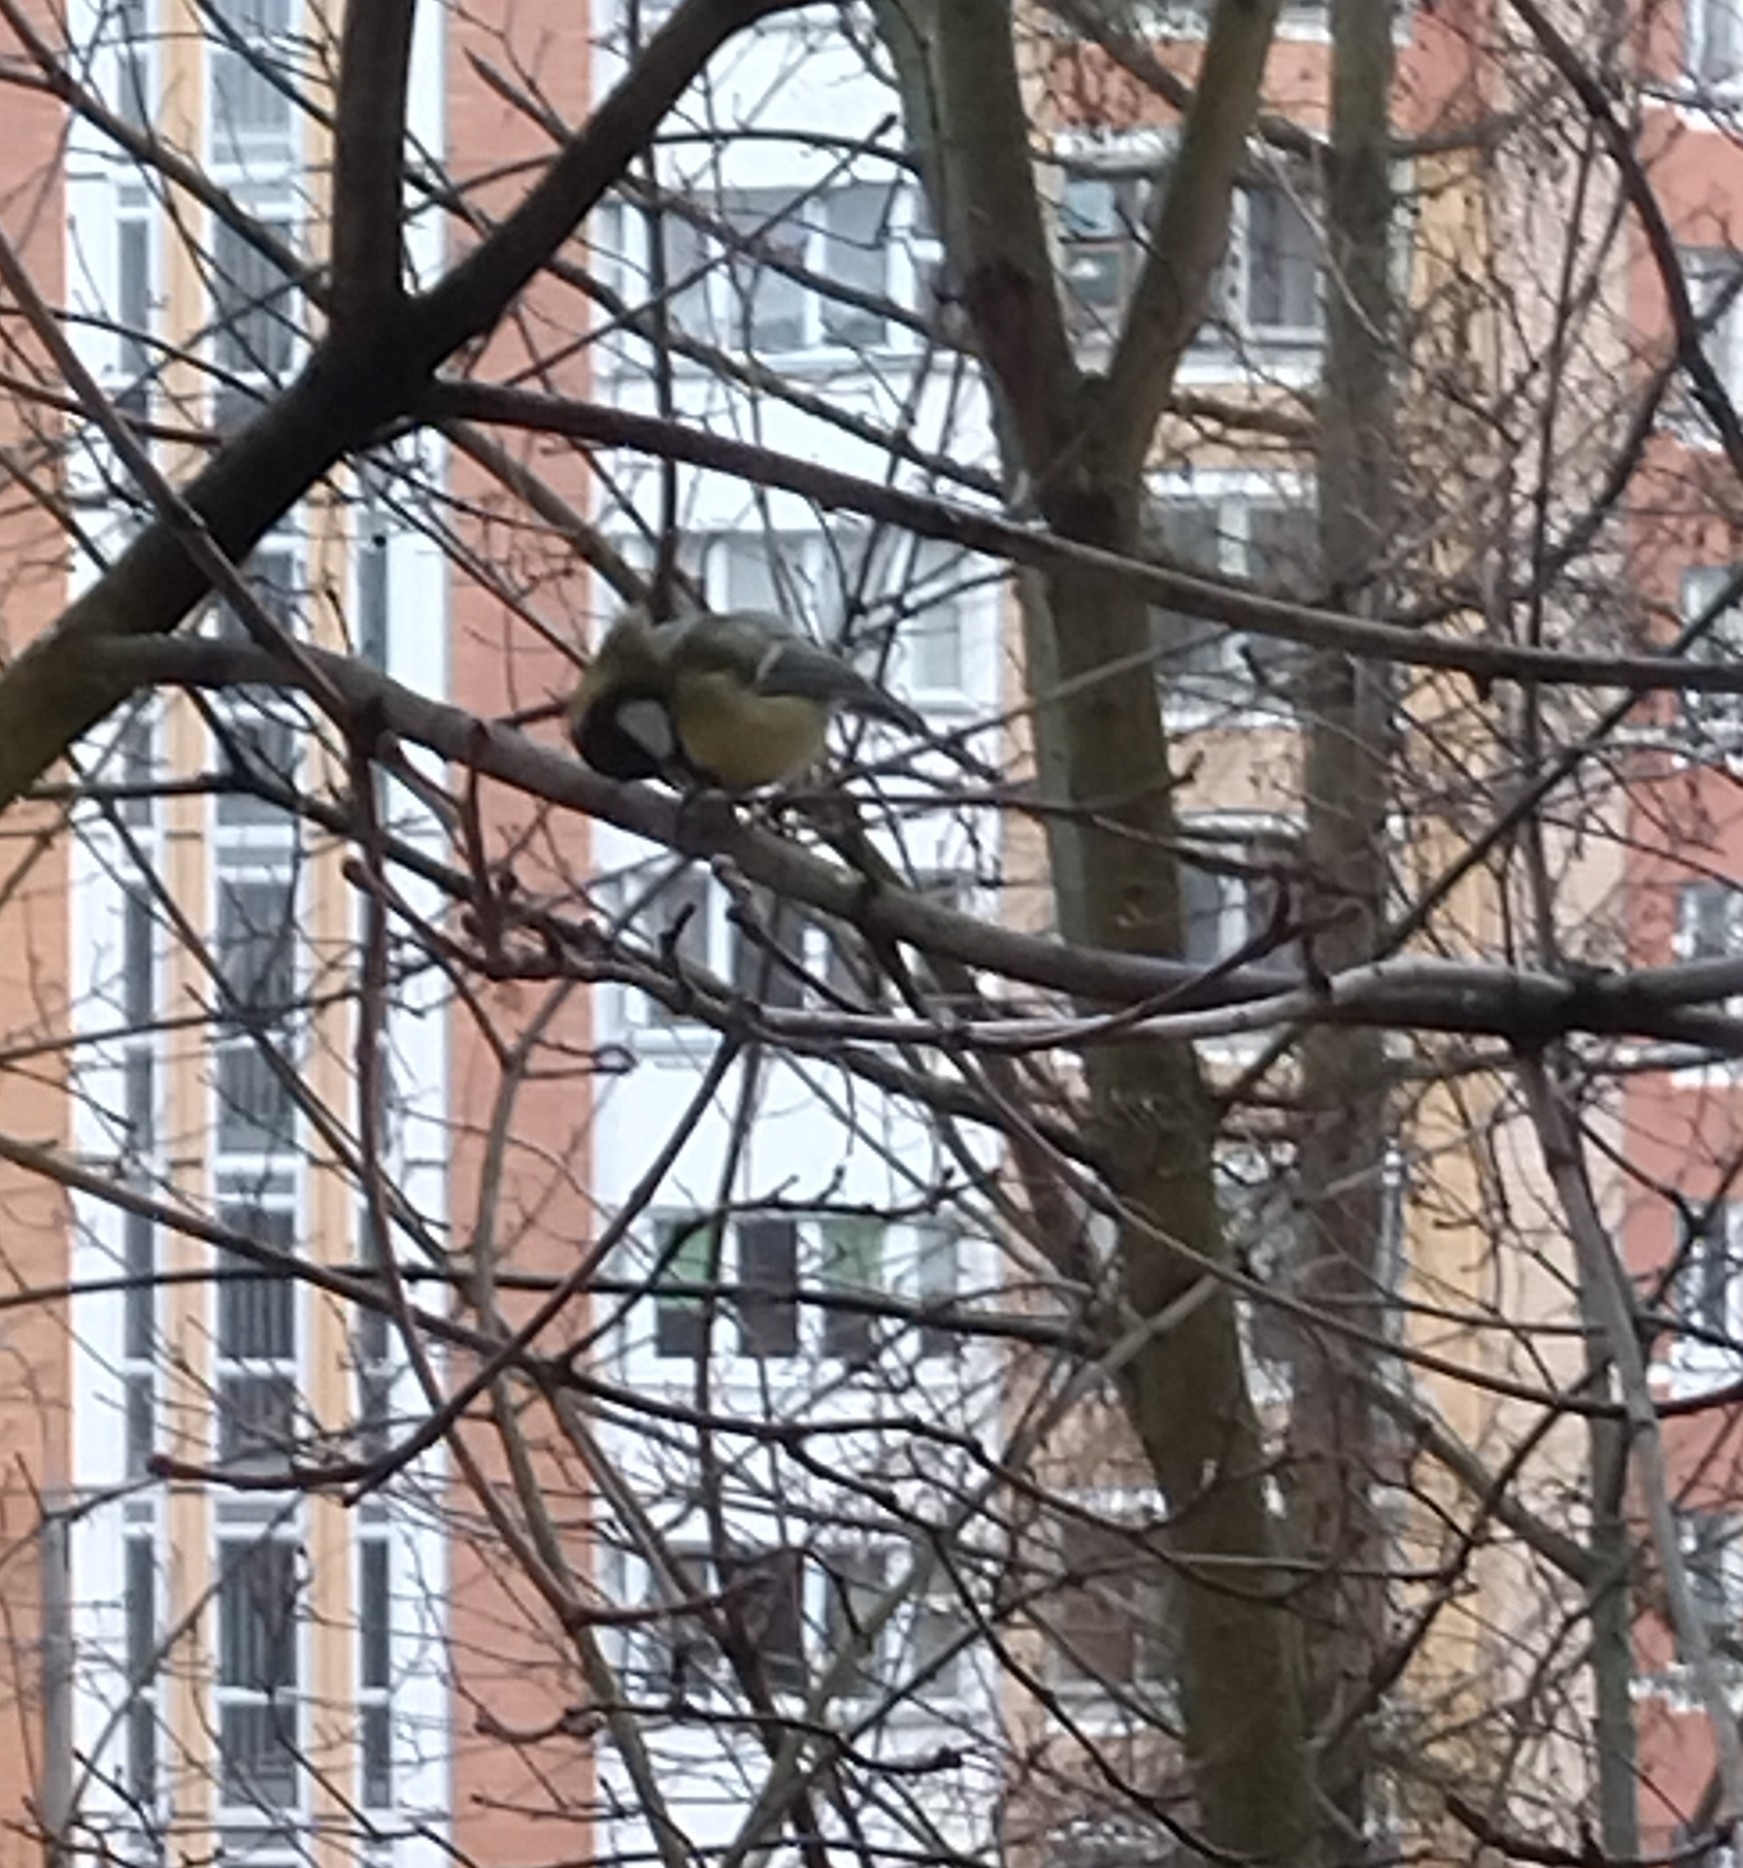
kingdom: Animalia
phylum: Chordata
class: Aves
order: Passeriformes
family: Paridae
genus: Parus
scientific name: Parus major
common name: Great tit
